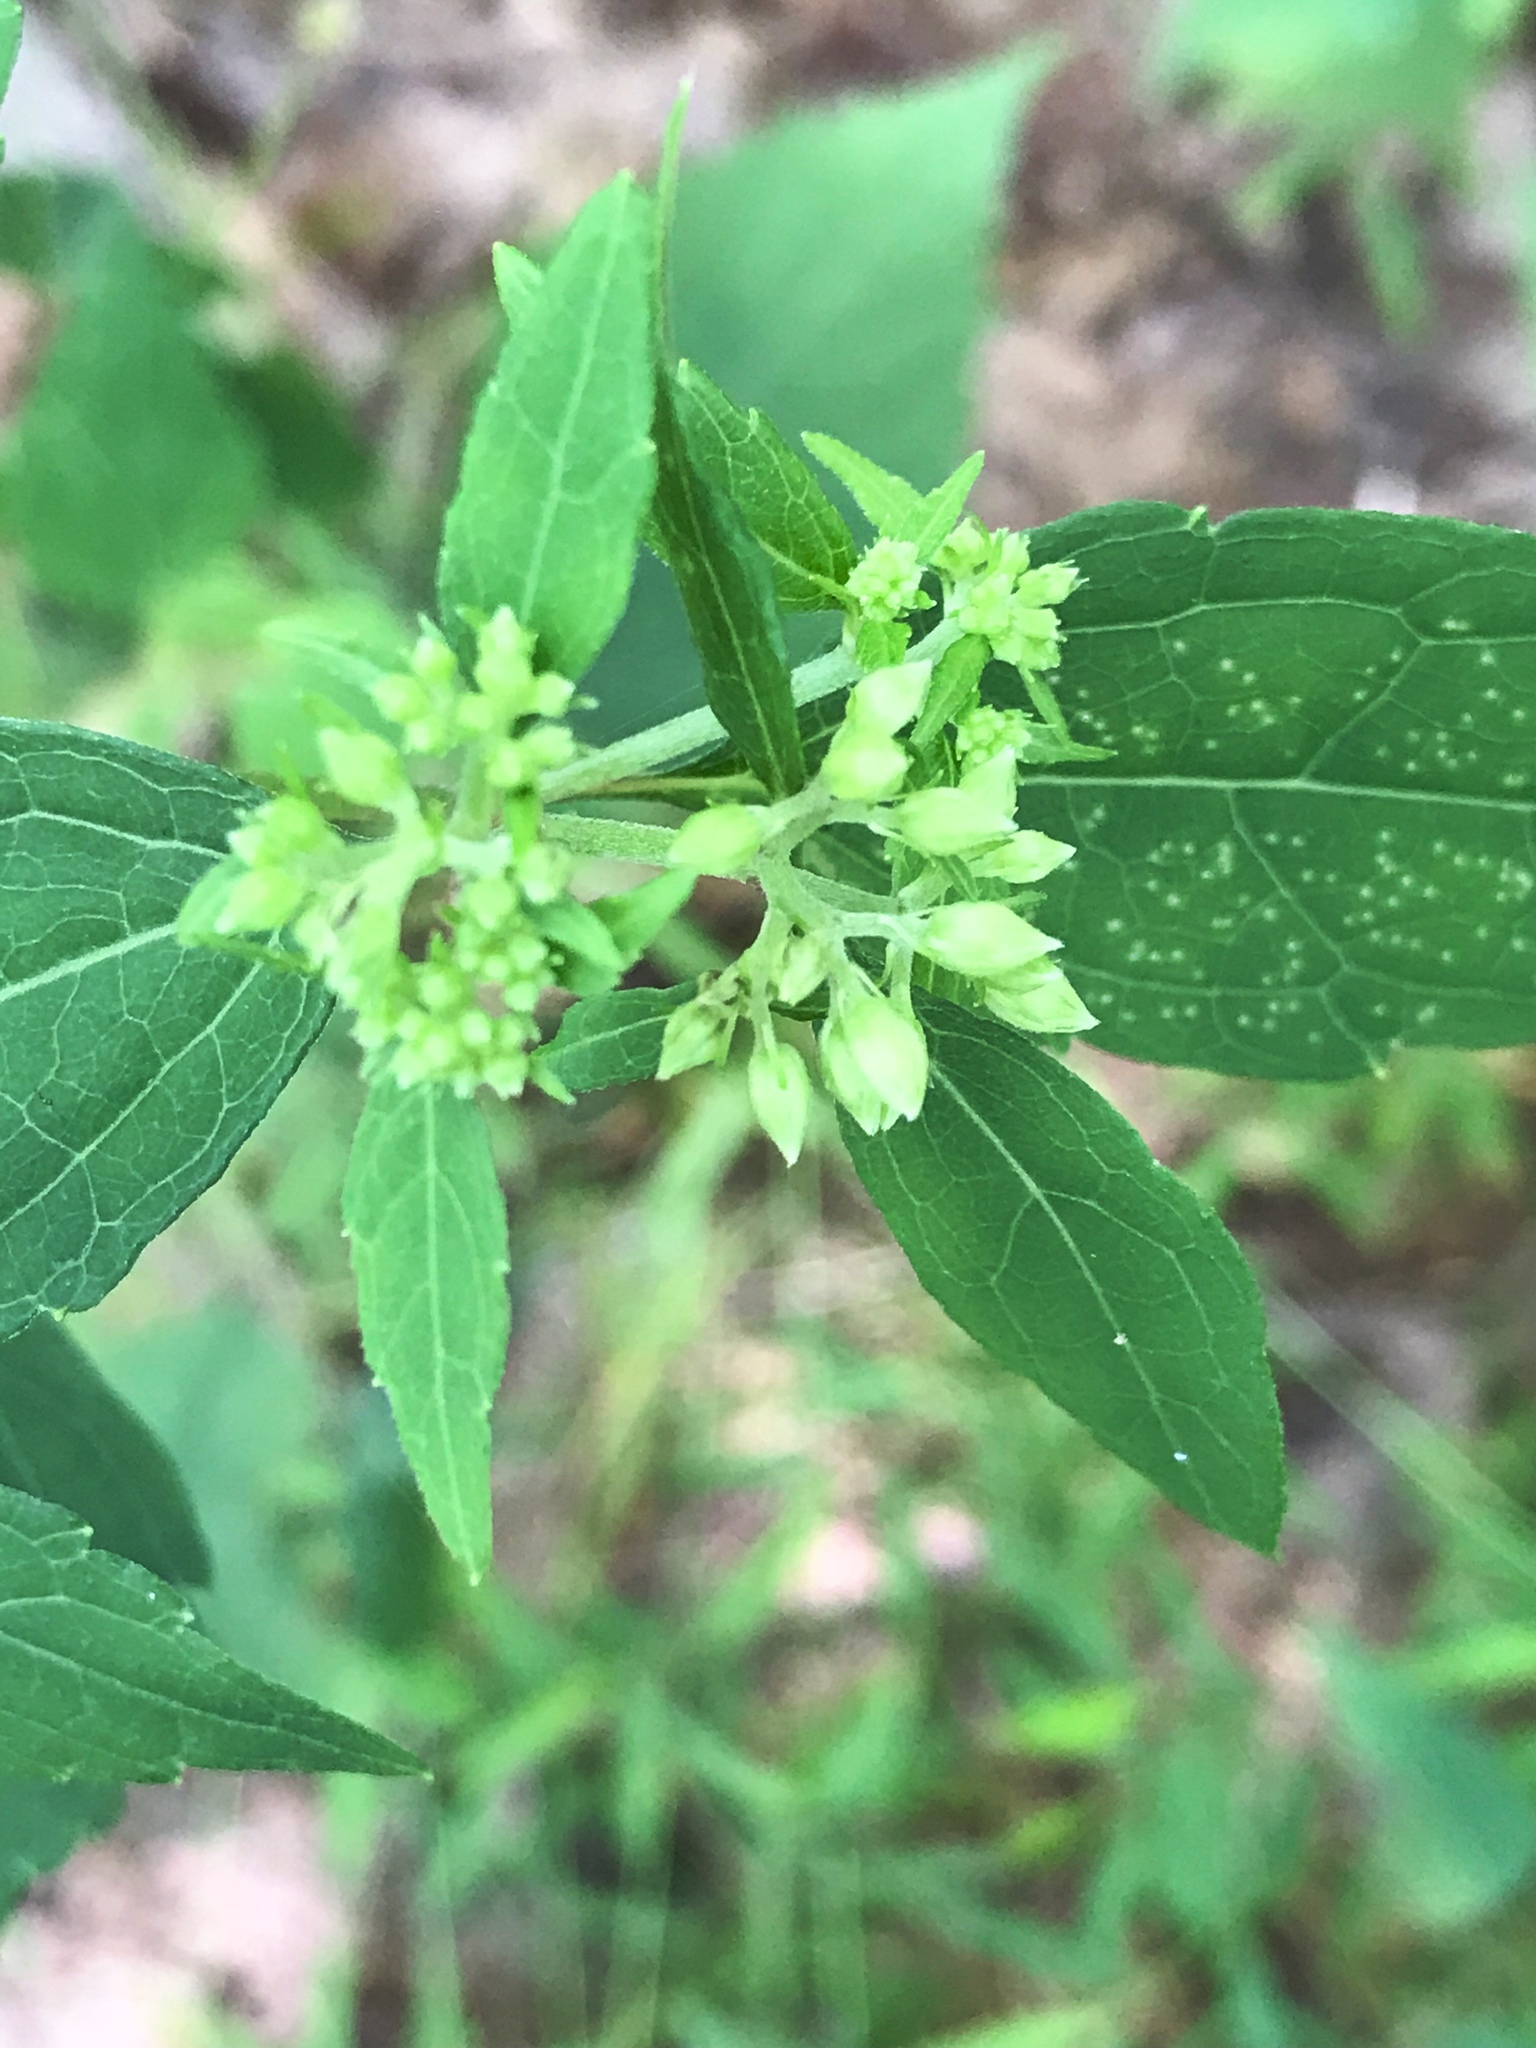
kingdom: Plantae
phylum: Tracheophyta
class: Magnoliopsida
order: Asterales
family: Asteraceae
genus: Ageratina
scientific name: Ageratina altissima
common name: White snakeroot
